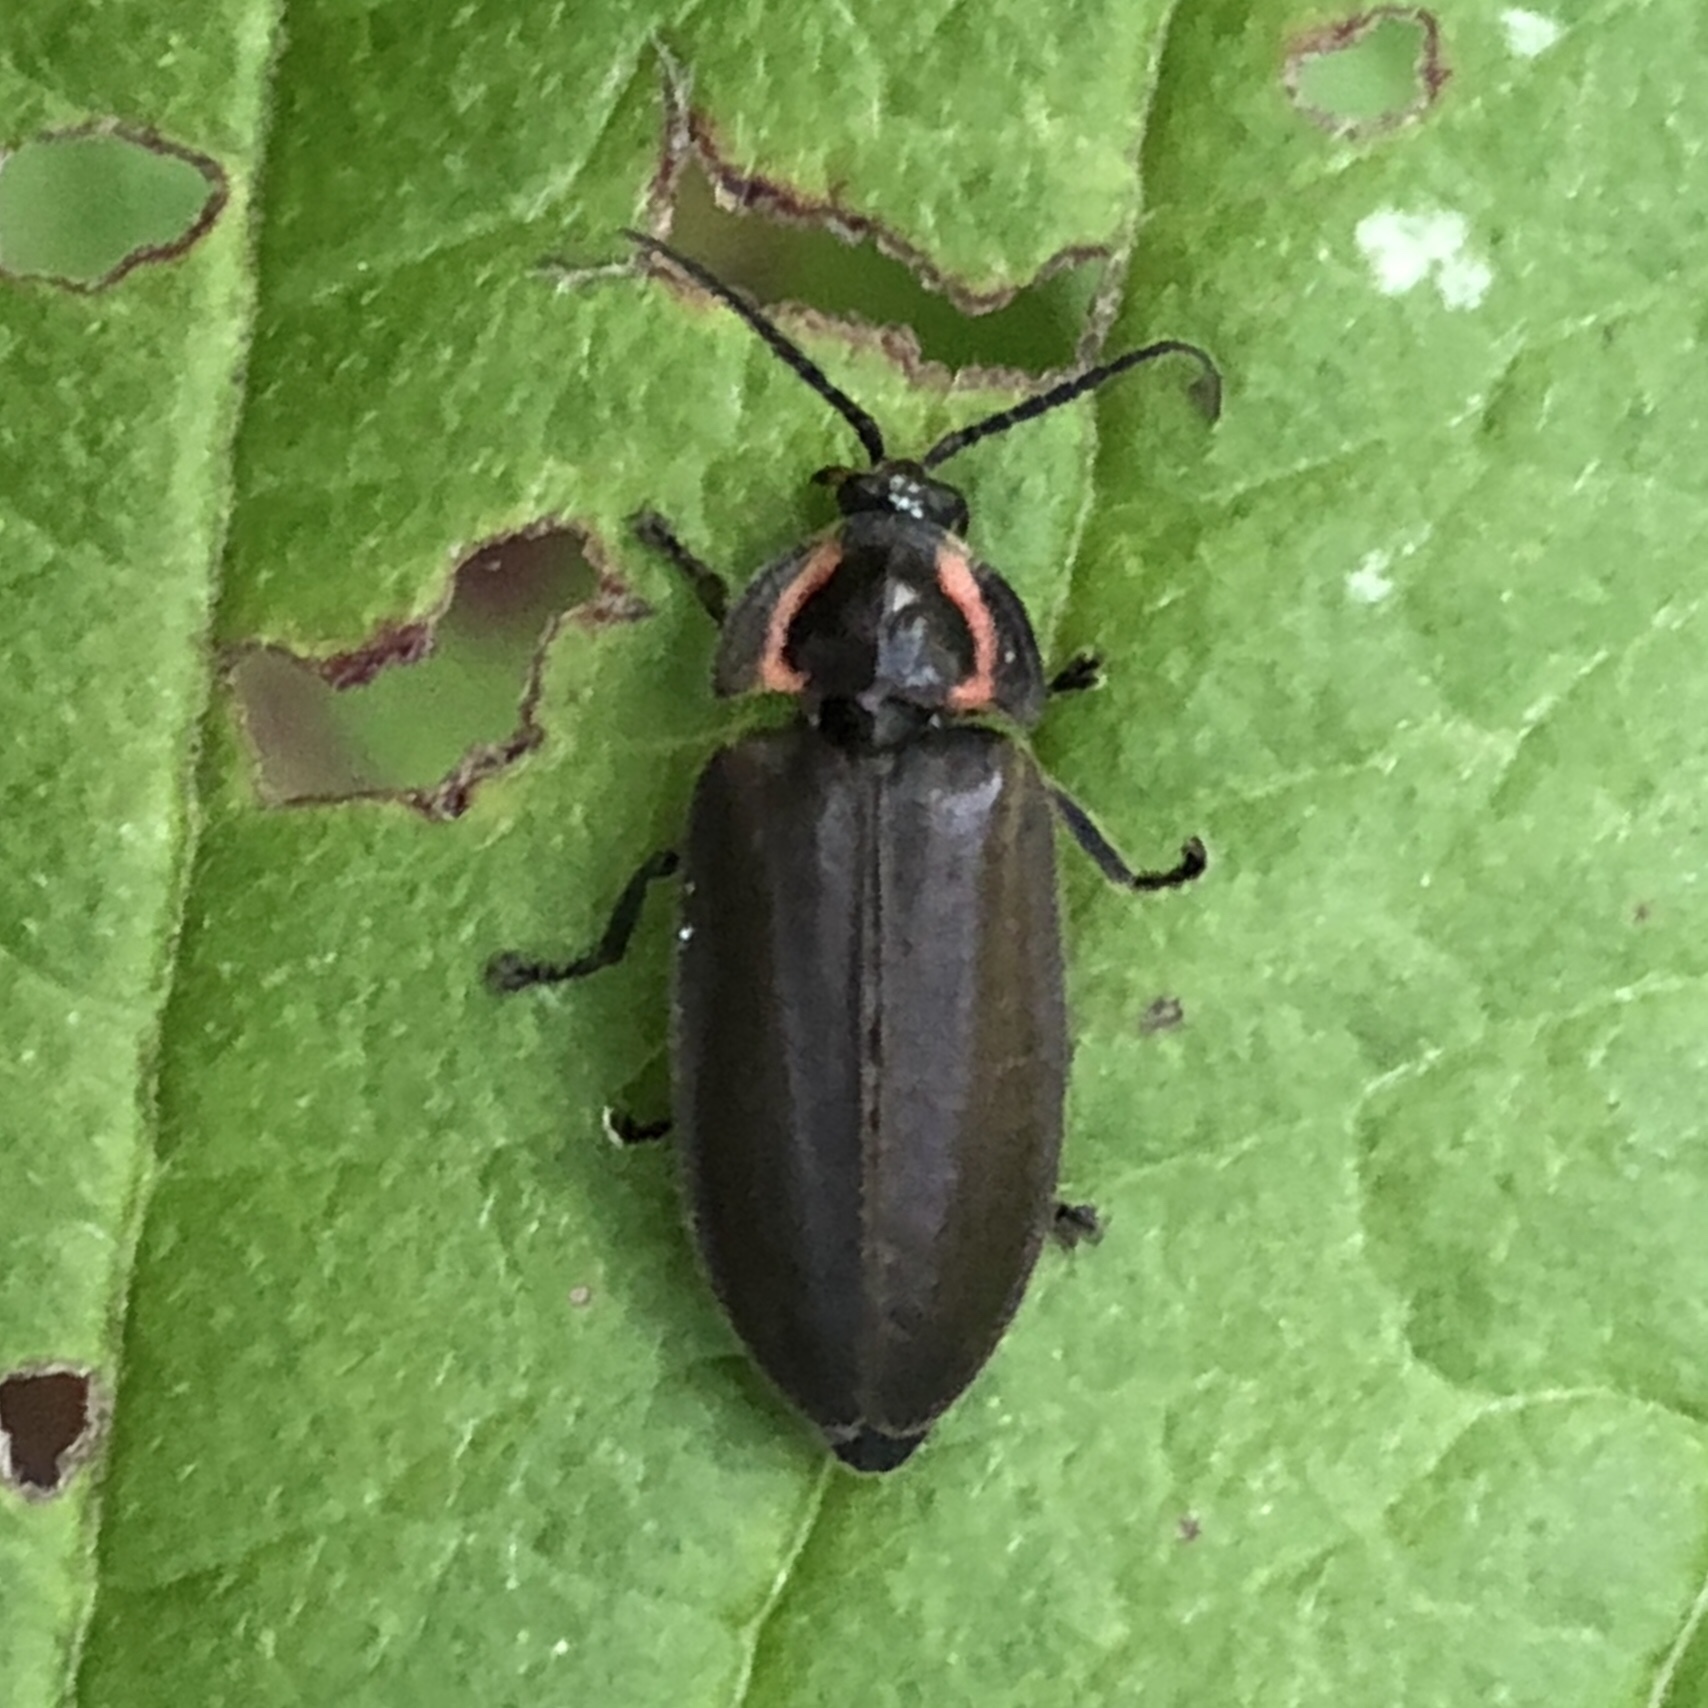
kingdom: Animalia
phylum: Arthropoda
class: Insecta
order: Coleoptera
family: Lampyridae
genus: Photinus
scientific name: Photinus corrusca
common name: Winter firefly
